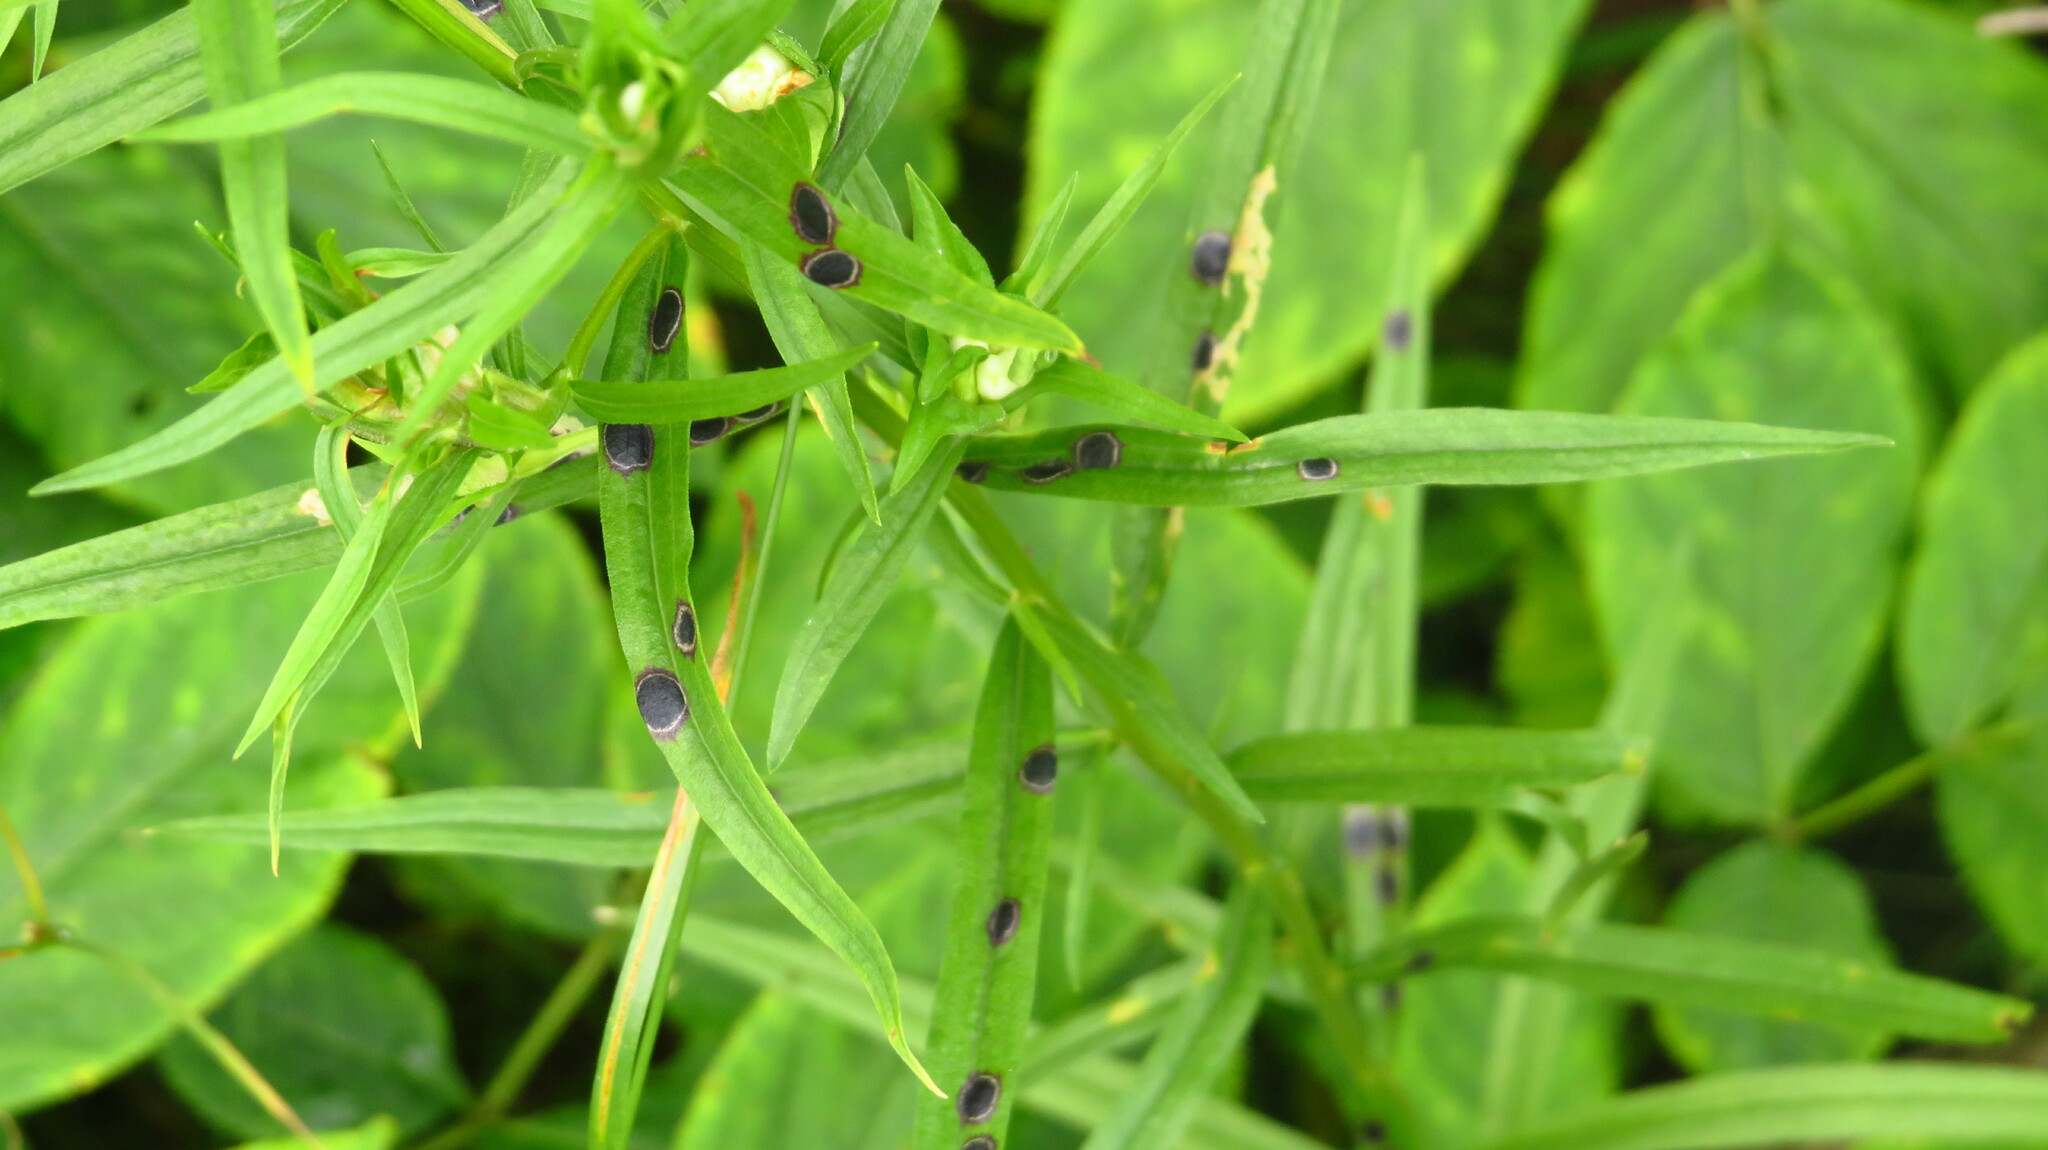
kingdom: Animalia
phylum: Arthropoda
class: Insecta
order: Diptera
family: Cecidomyiidae
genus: Asteromyia
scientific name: Asteromyia euthamiae
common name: Euthamia leaf gall midge
